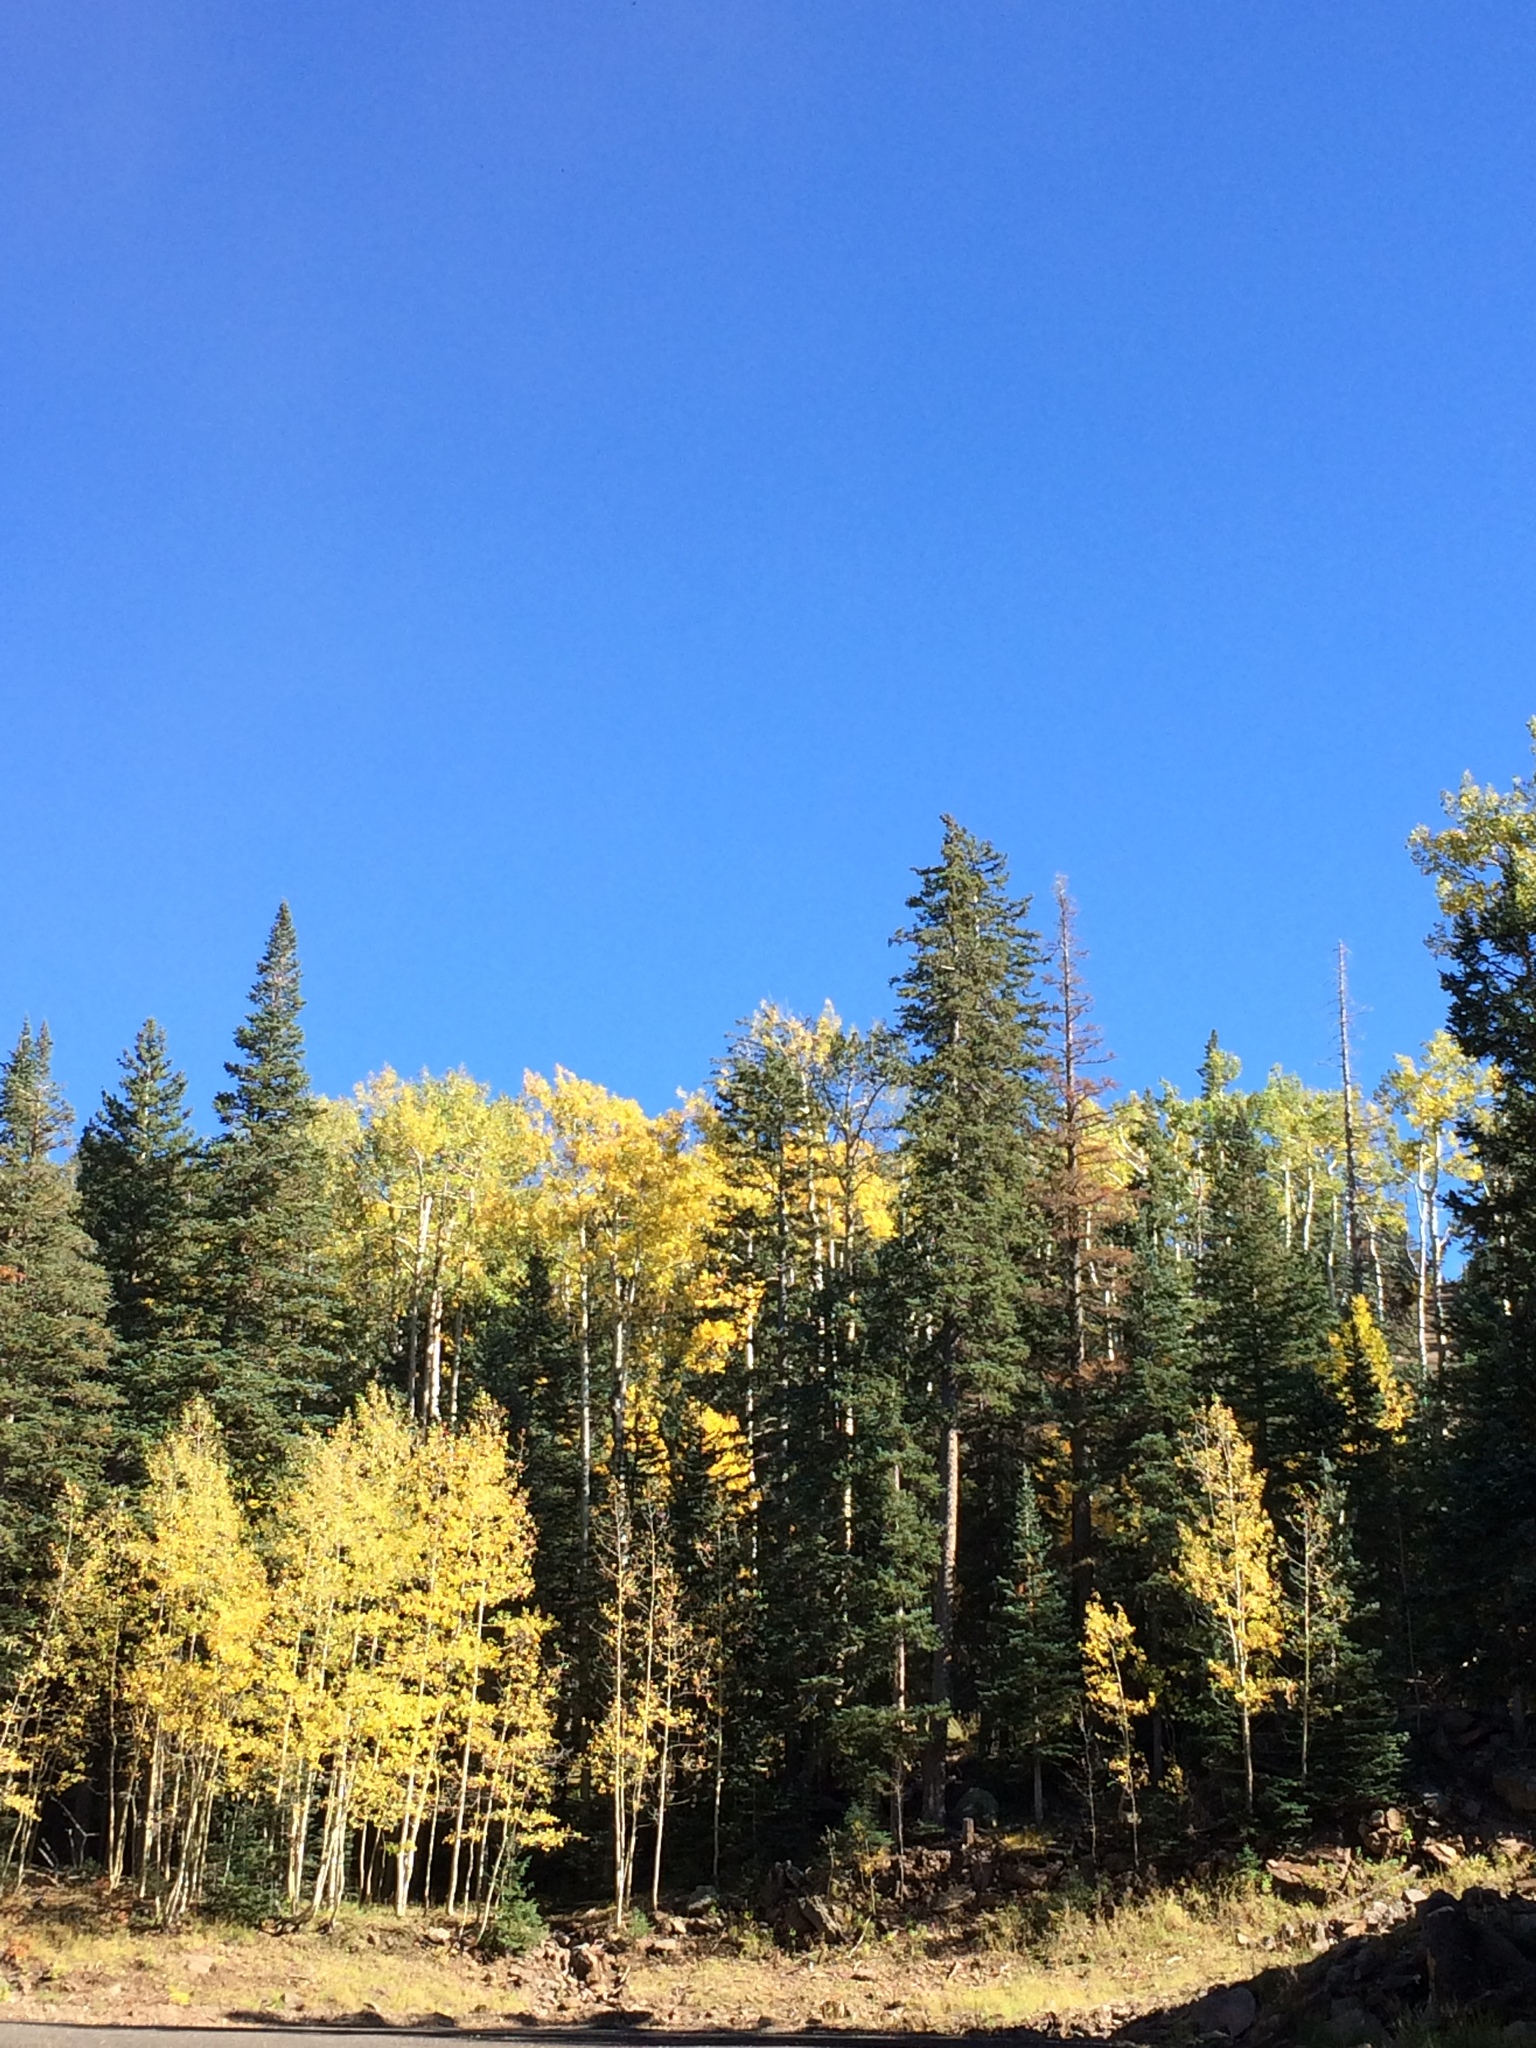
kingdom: Plantae
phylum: Tracheophyta
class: Magnoliopsida
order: Malpighiales
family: Salicaceae
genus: Populus
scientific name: Populus tremuloides
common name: Quaking aspen
